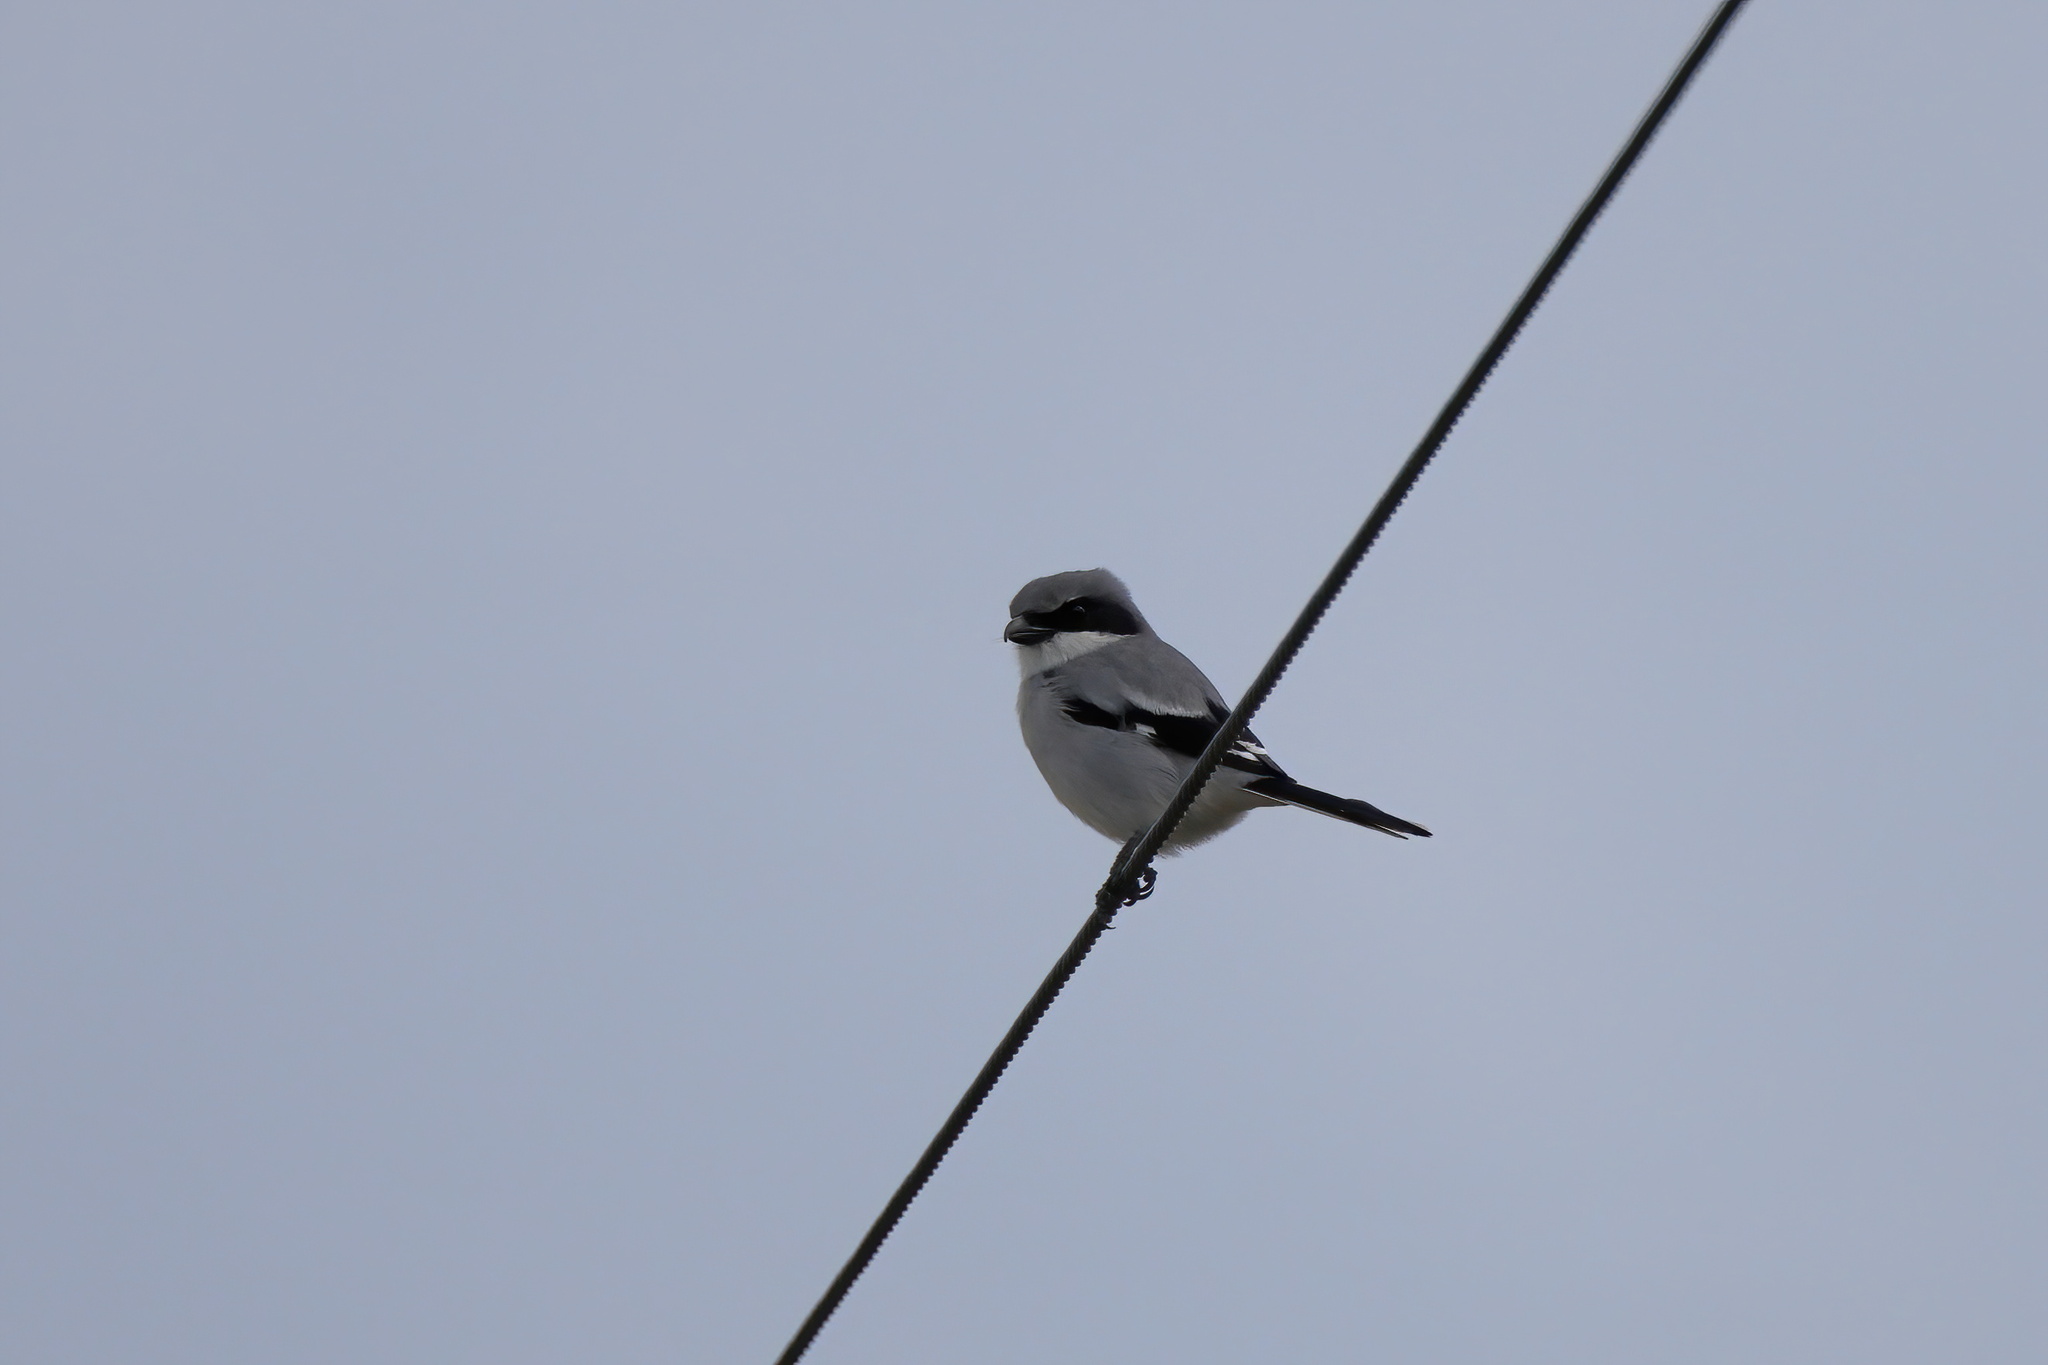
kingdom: Animalia
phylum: Chordata
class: Aves
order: Passeriformes
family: Laniidae
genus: Lanius
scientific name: Lanius ludovicianus
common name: Loggerhead shrike
